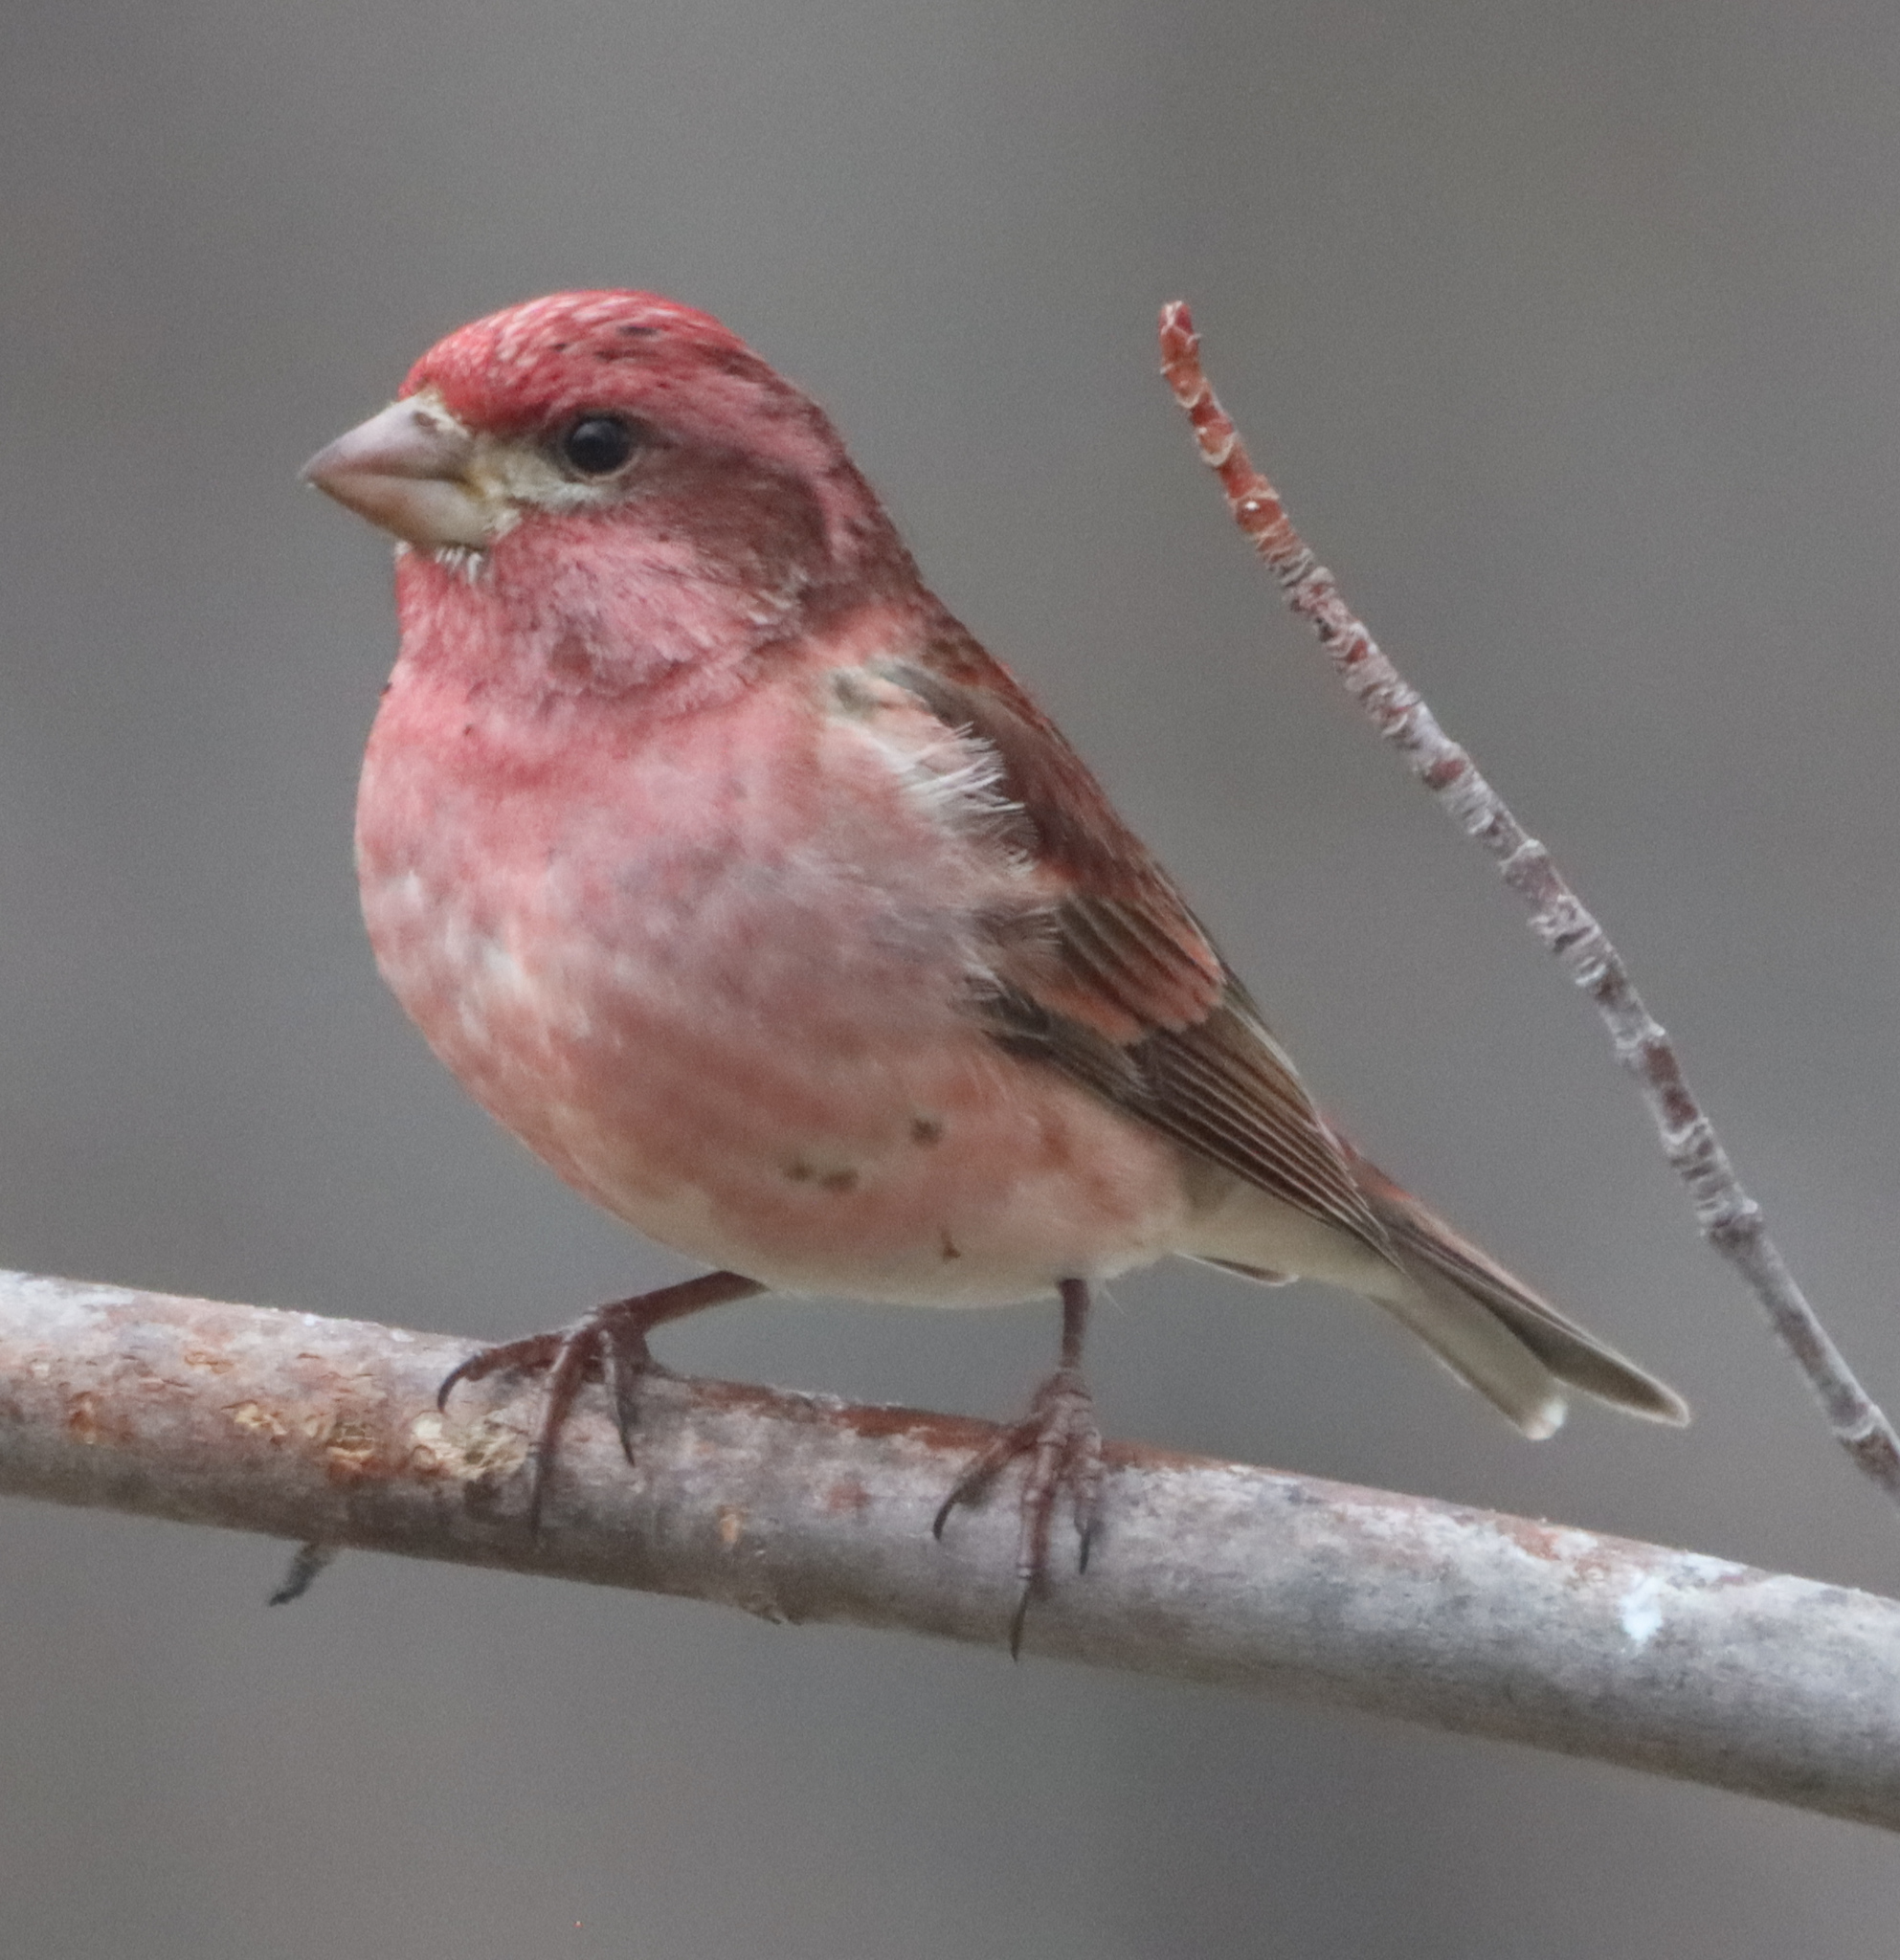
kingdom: Animalia
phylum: Chordata
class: Aves
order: Passeriformes
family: Fringillidae
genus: Haemorhous
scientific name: Haemorhous purpureus
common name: Purple finch
